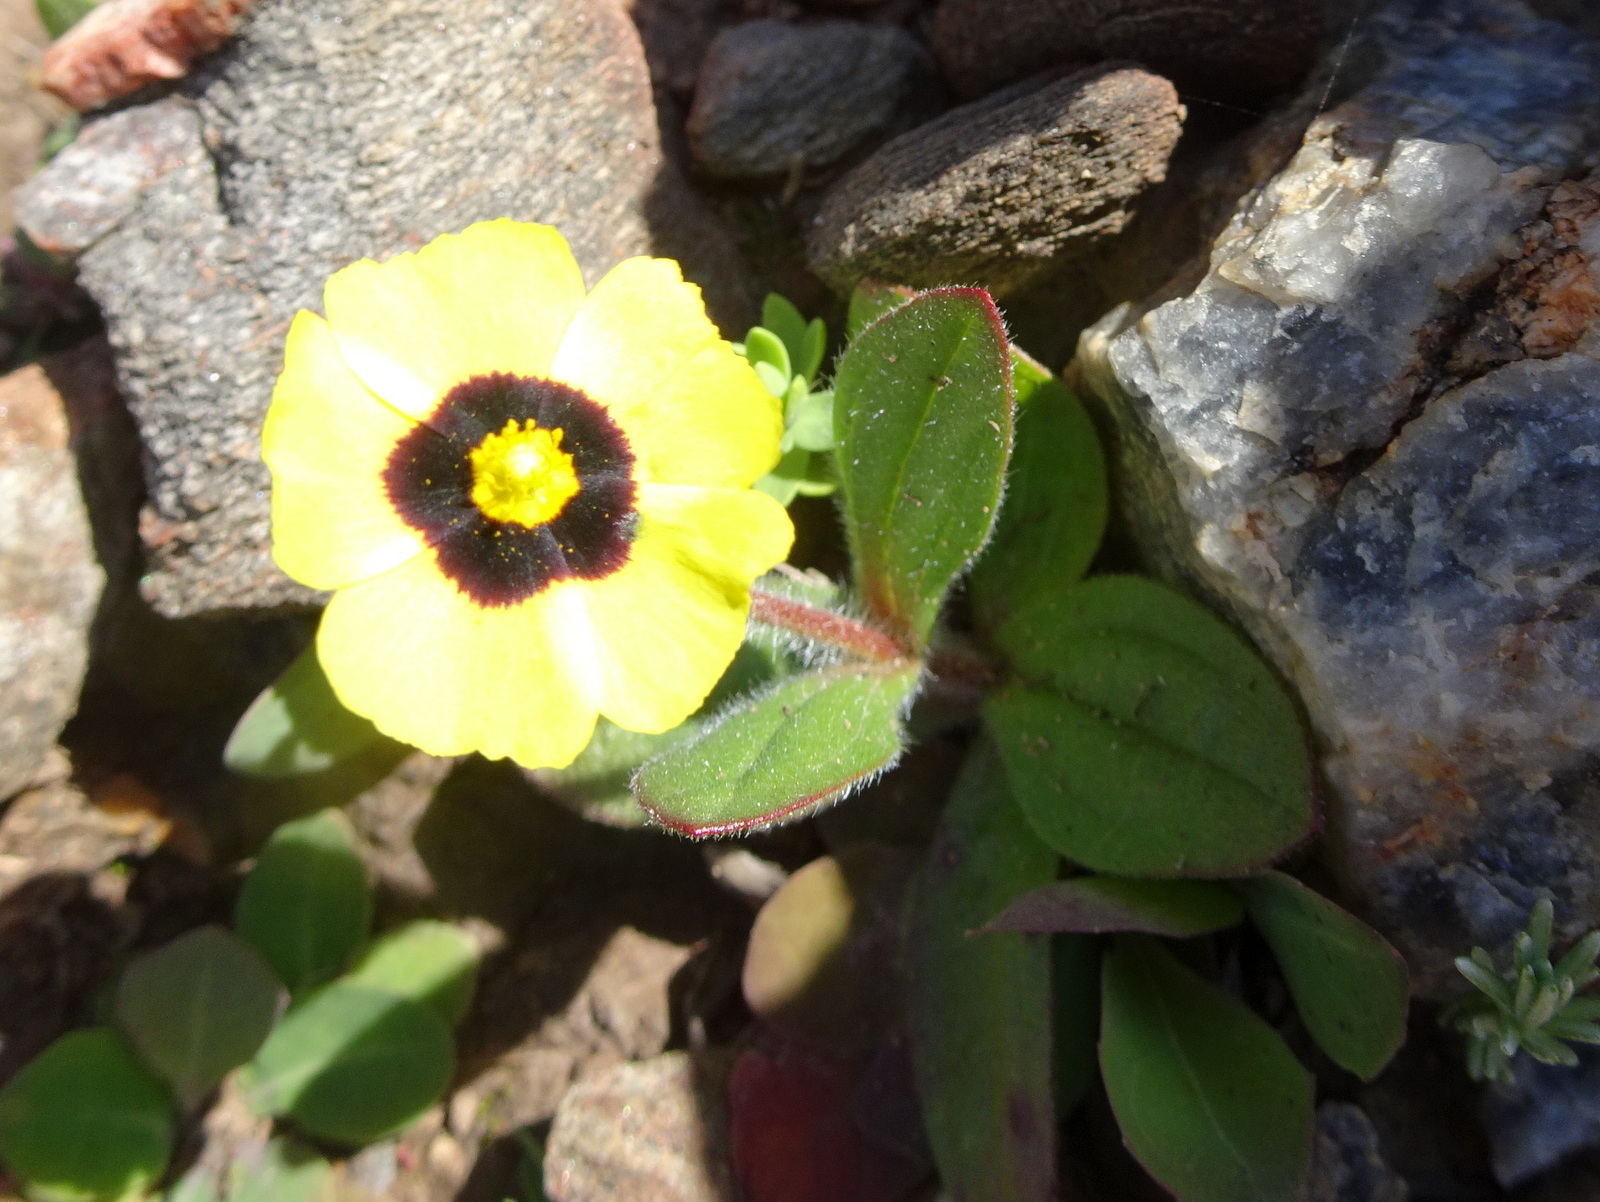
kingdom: Plantae
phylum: Tracheophyta
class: Magnoliopsida
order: Malvales
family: Cistaceae
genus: Tuberaria
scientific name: Tuberaria guttata
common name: Spotted rock-rose
